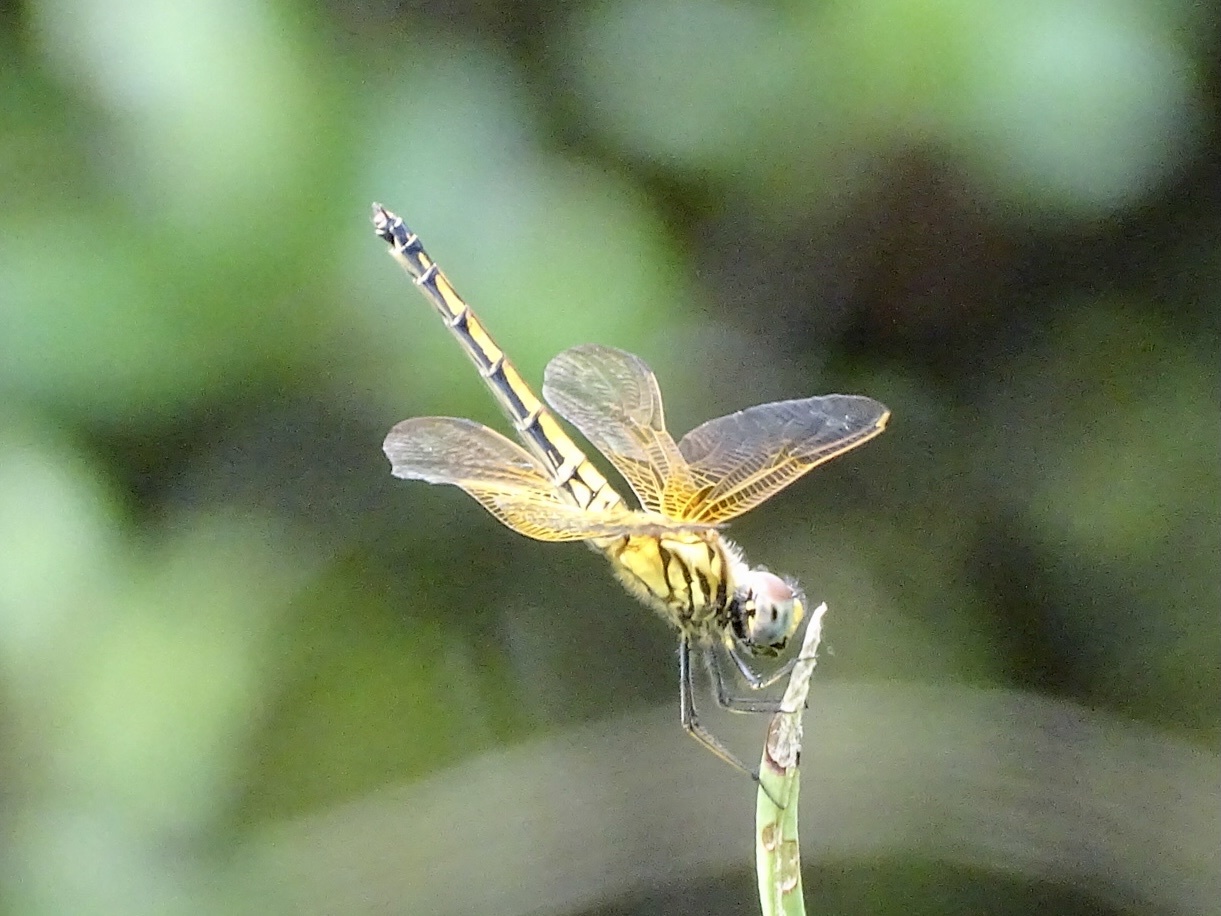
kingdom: Animalia
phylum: Arthropoda
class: Insecta
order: Odonata
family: Libellulidae
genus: Trithemis
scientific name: Trithemis aurora
